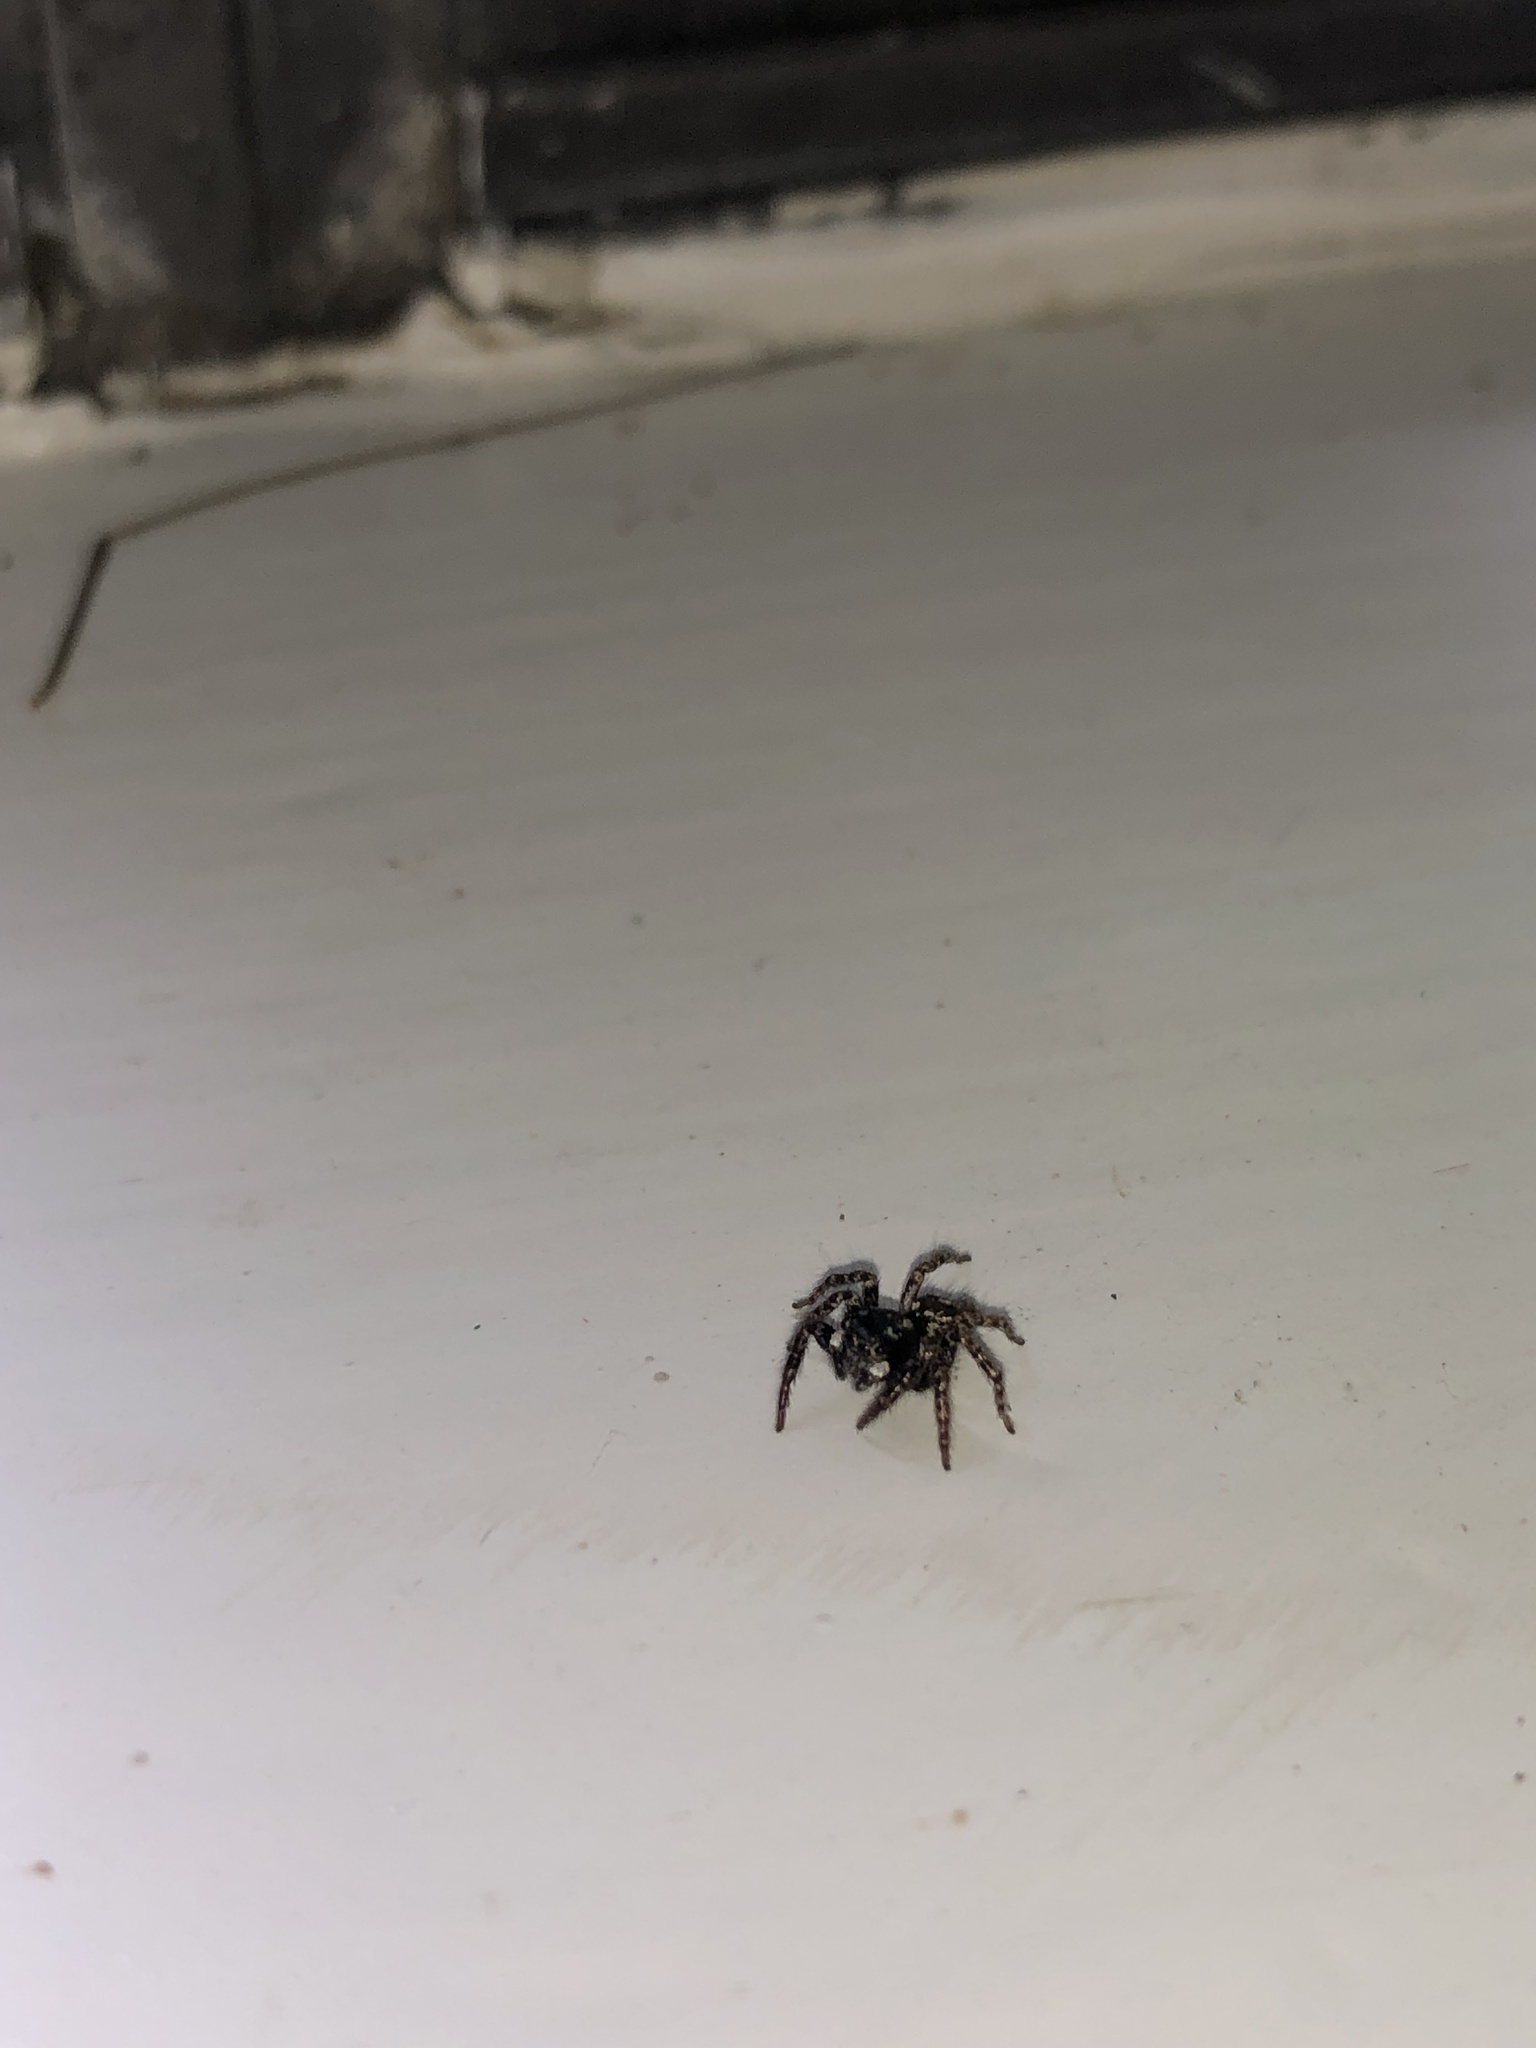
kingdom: Animalia
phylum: Arthropoda
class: Arachnida
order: Araneae
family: Salticidae
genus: Anasaitis
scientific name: Anasaitis canosa
